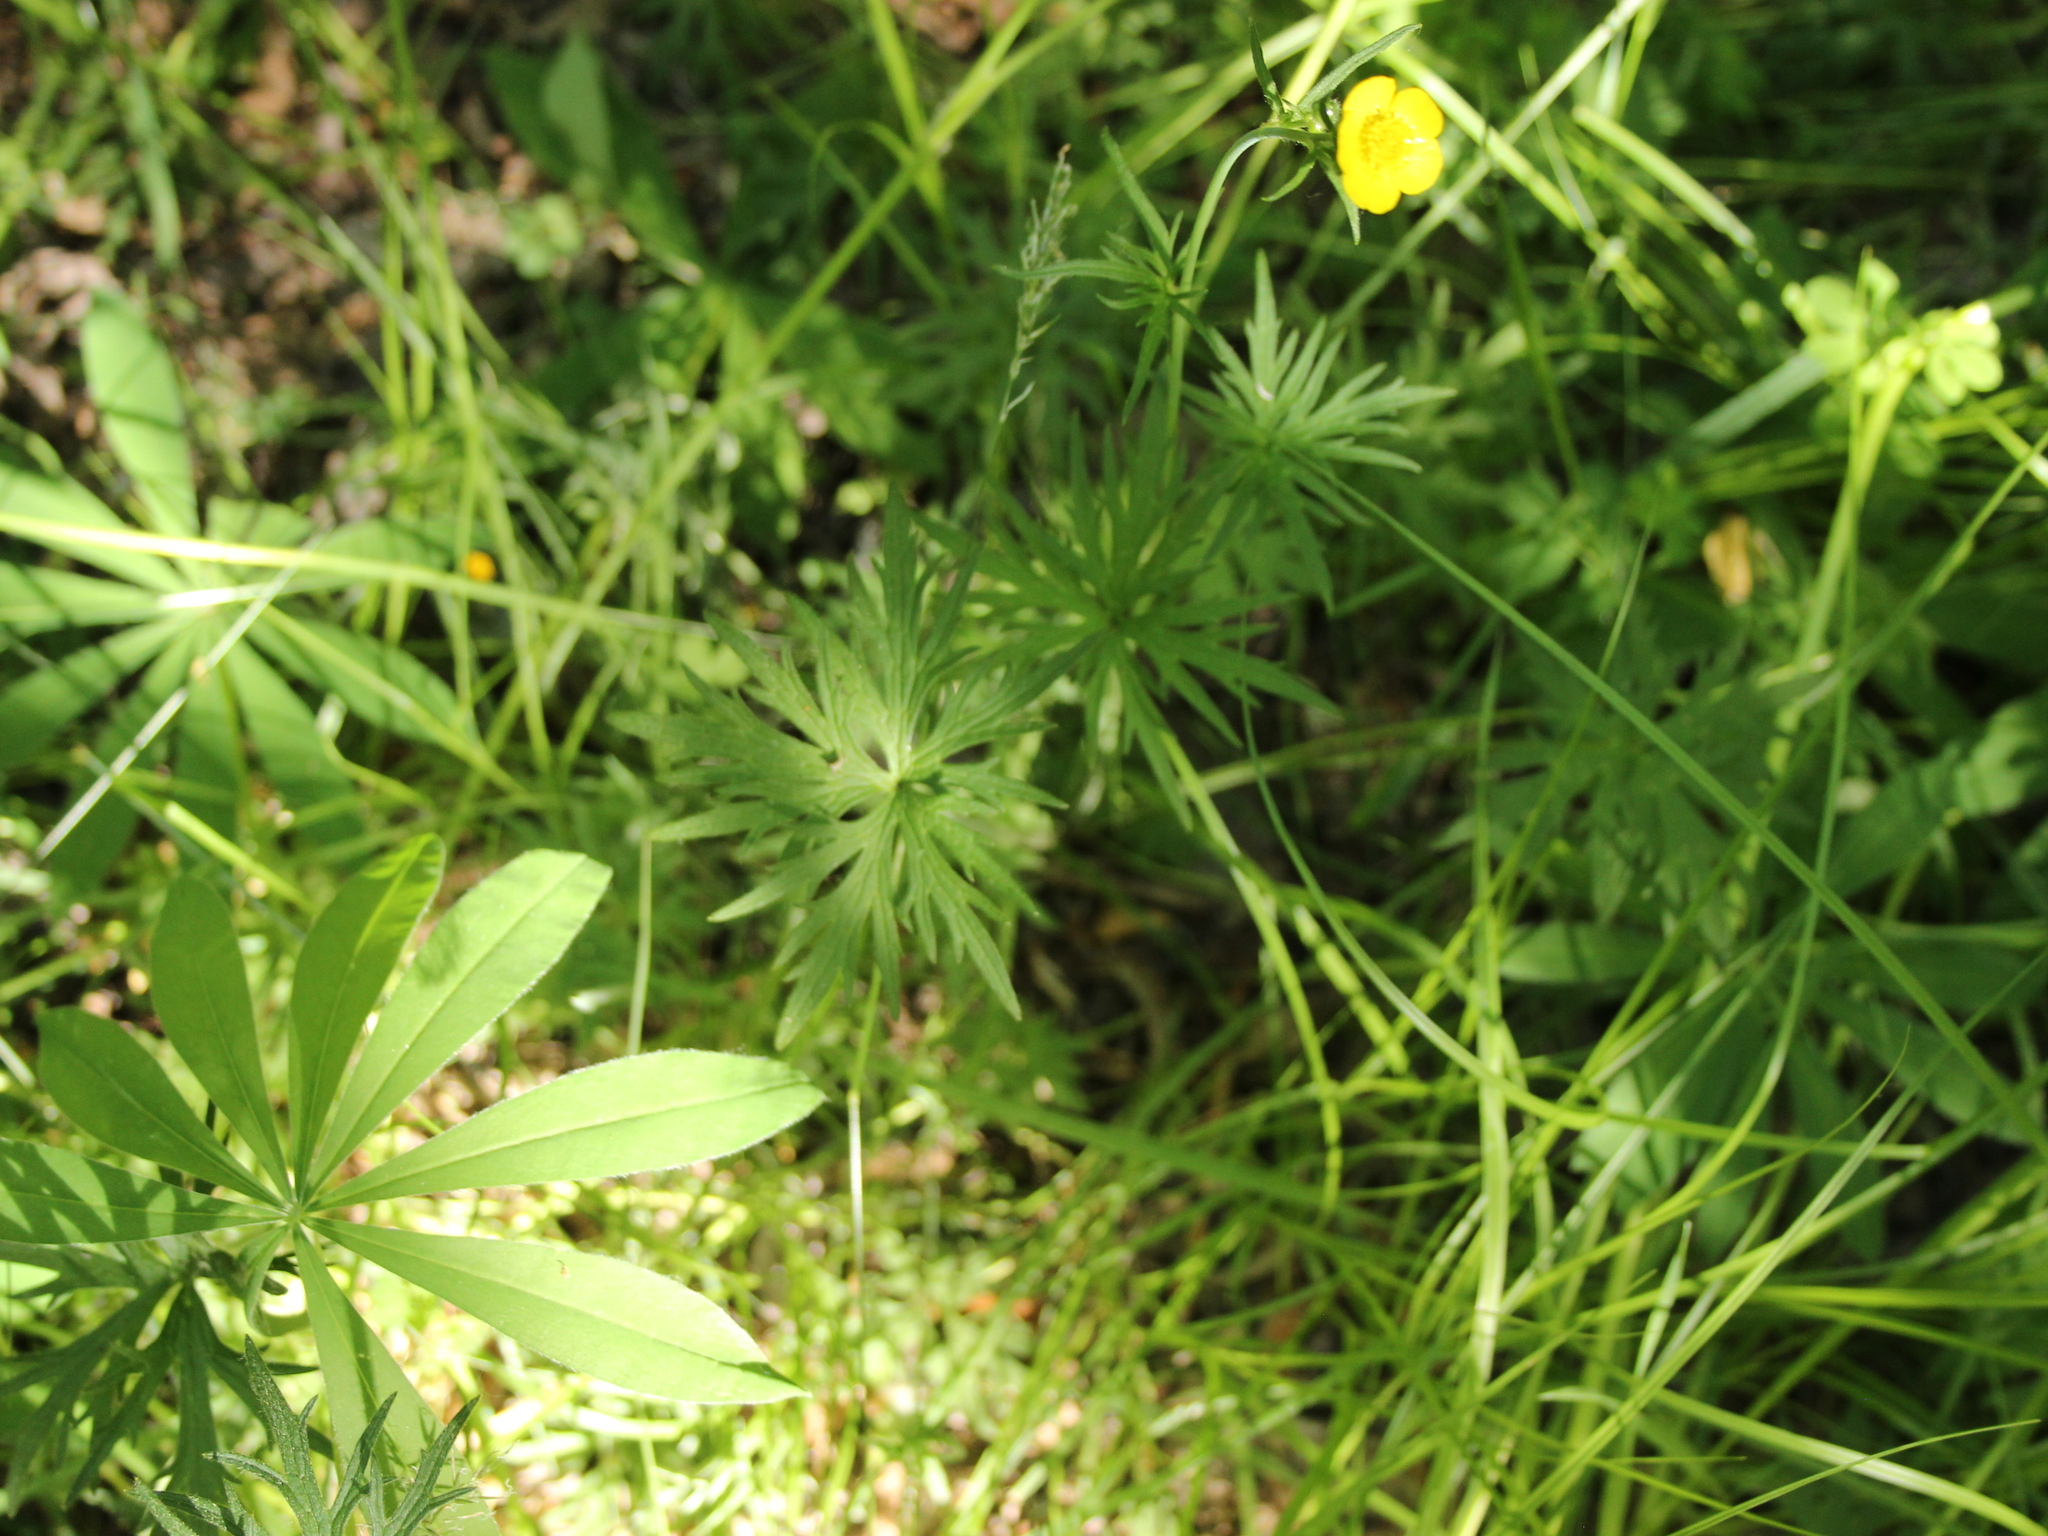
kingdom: Plantae
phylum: Tracheophyta
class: Magnoliopsida
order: Ranunculales
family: Ranunculaceae
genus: Ranunculus
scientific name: Ranunculus acris
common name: Meadow buttercup
